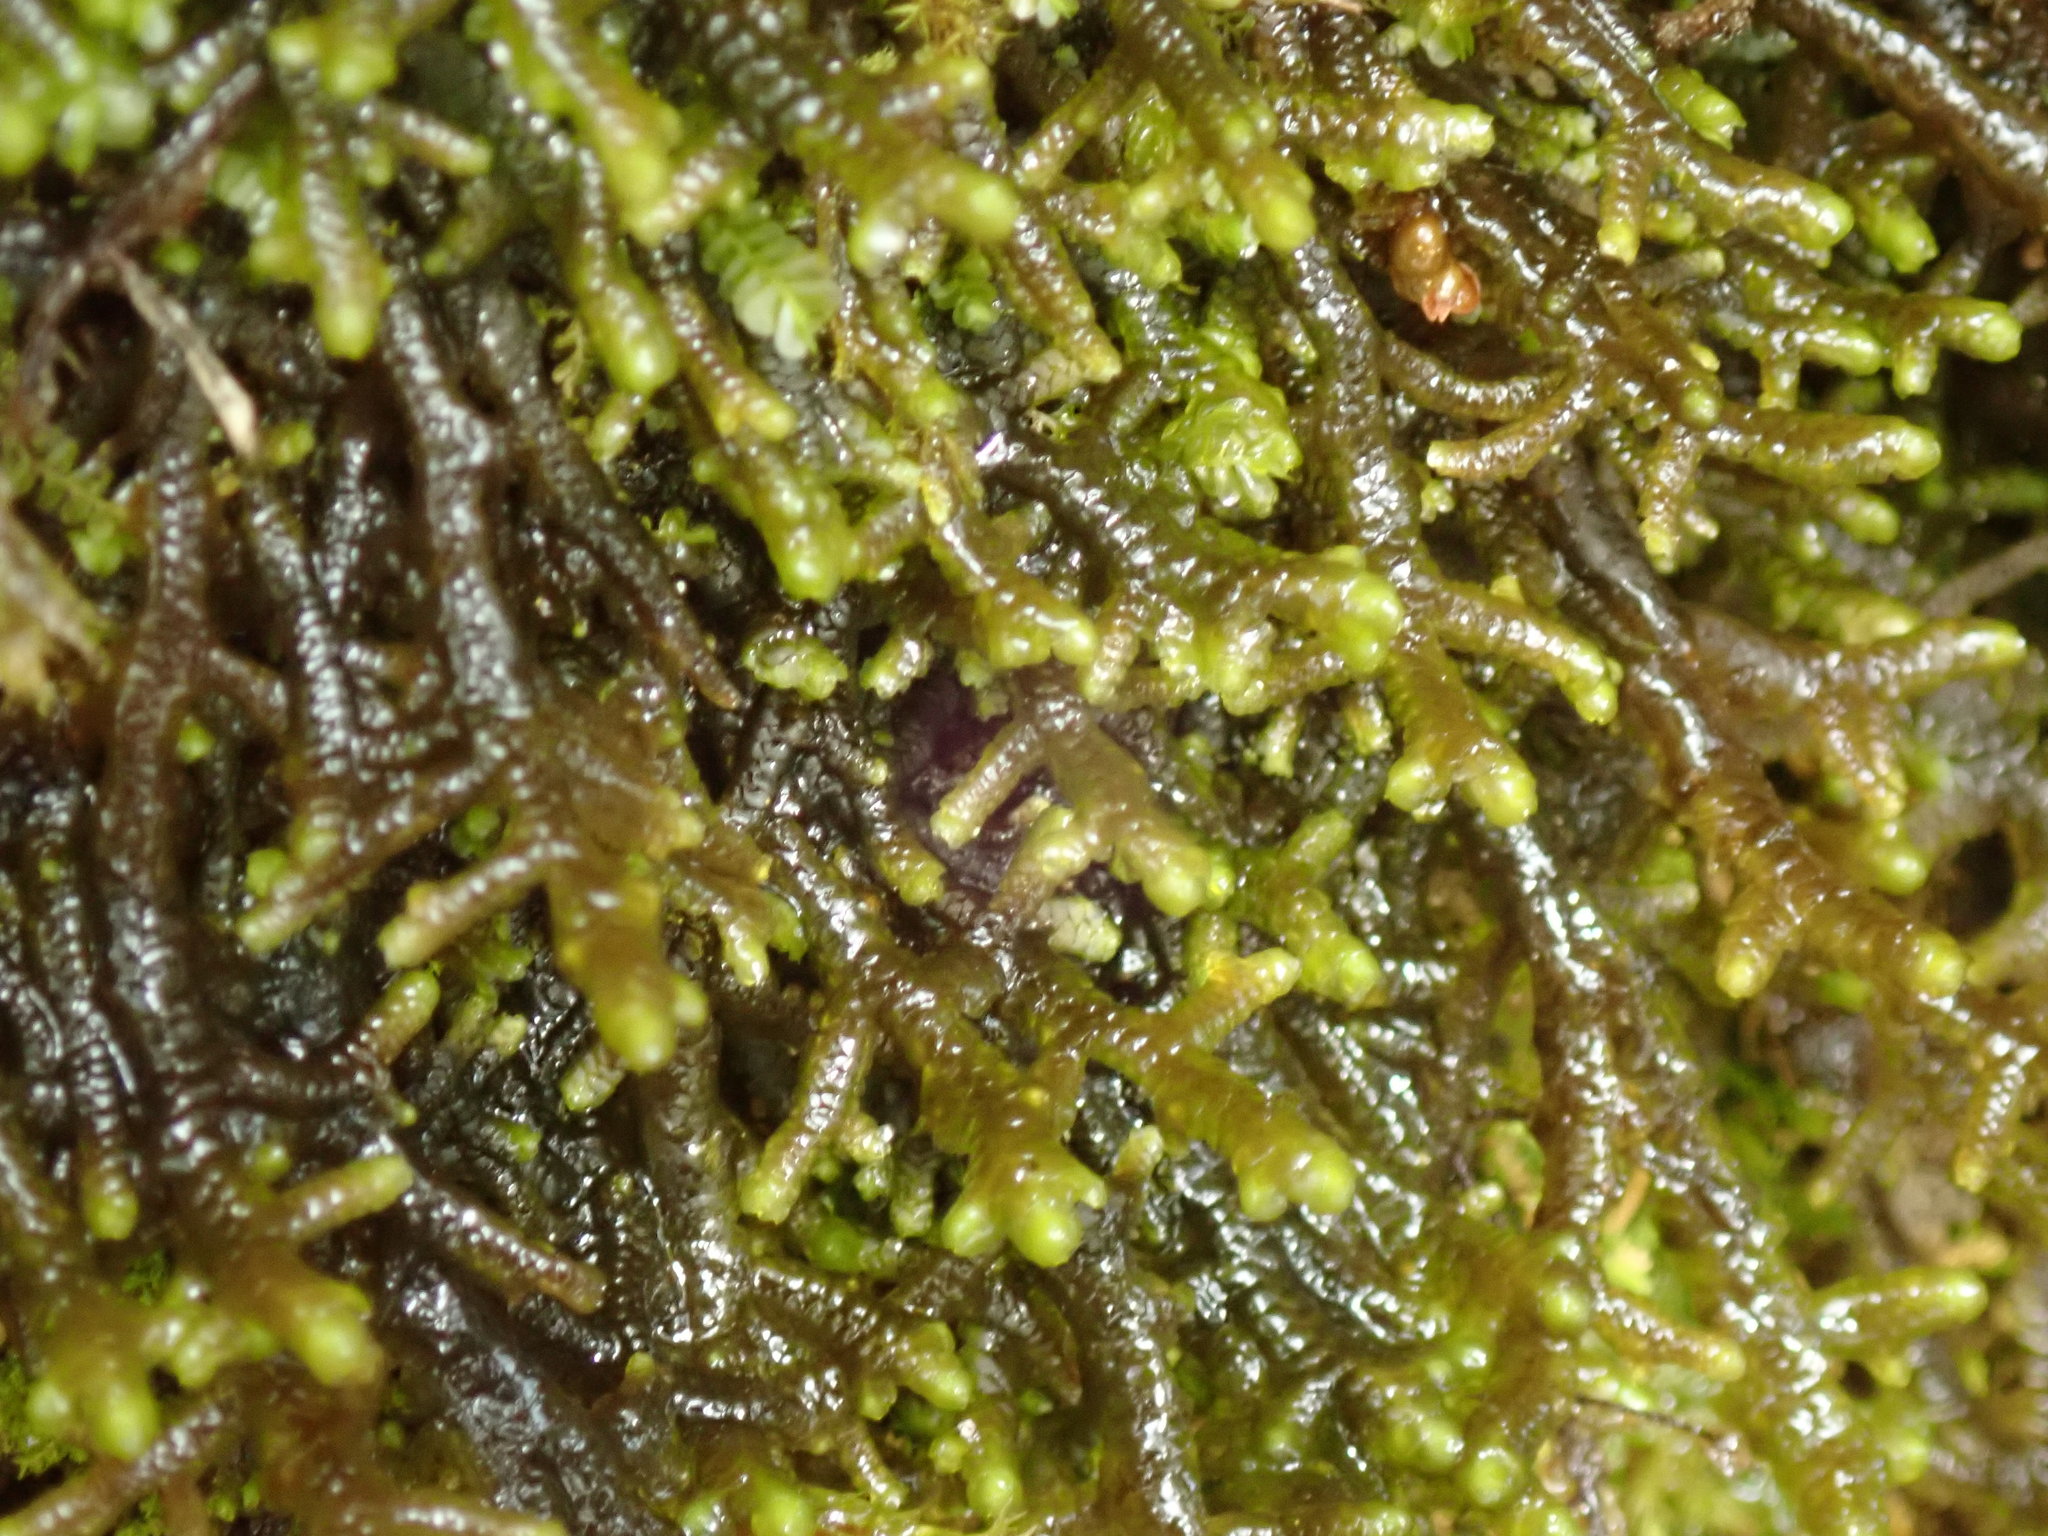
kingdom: Plantae
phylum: Marchantiophyta
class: Jungermanniopsida
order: Porellales
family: Porellaceae
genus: Porella
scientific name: Porella roellii
